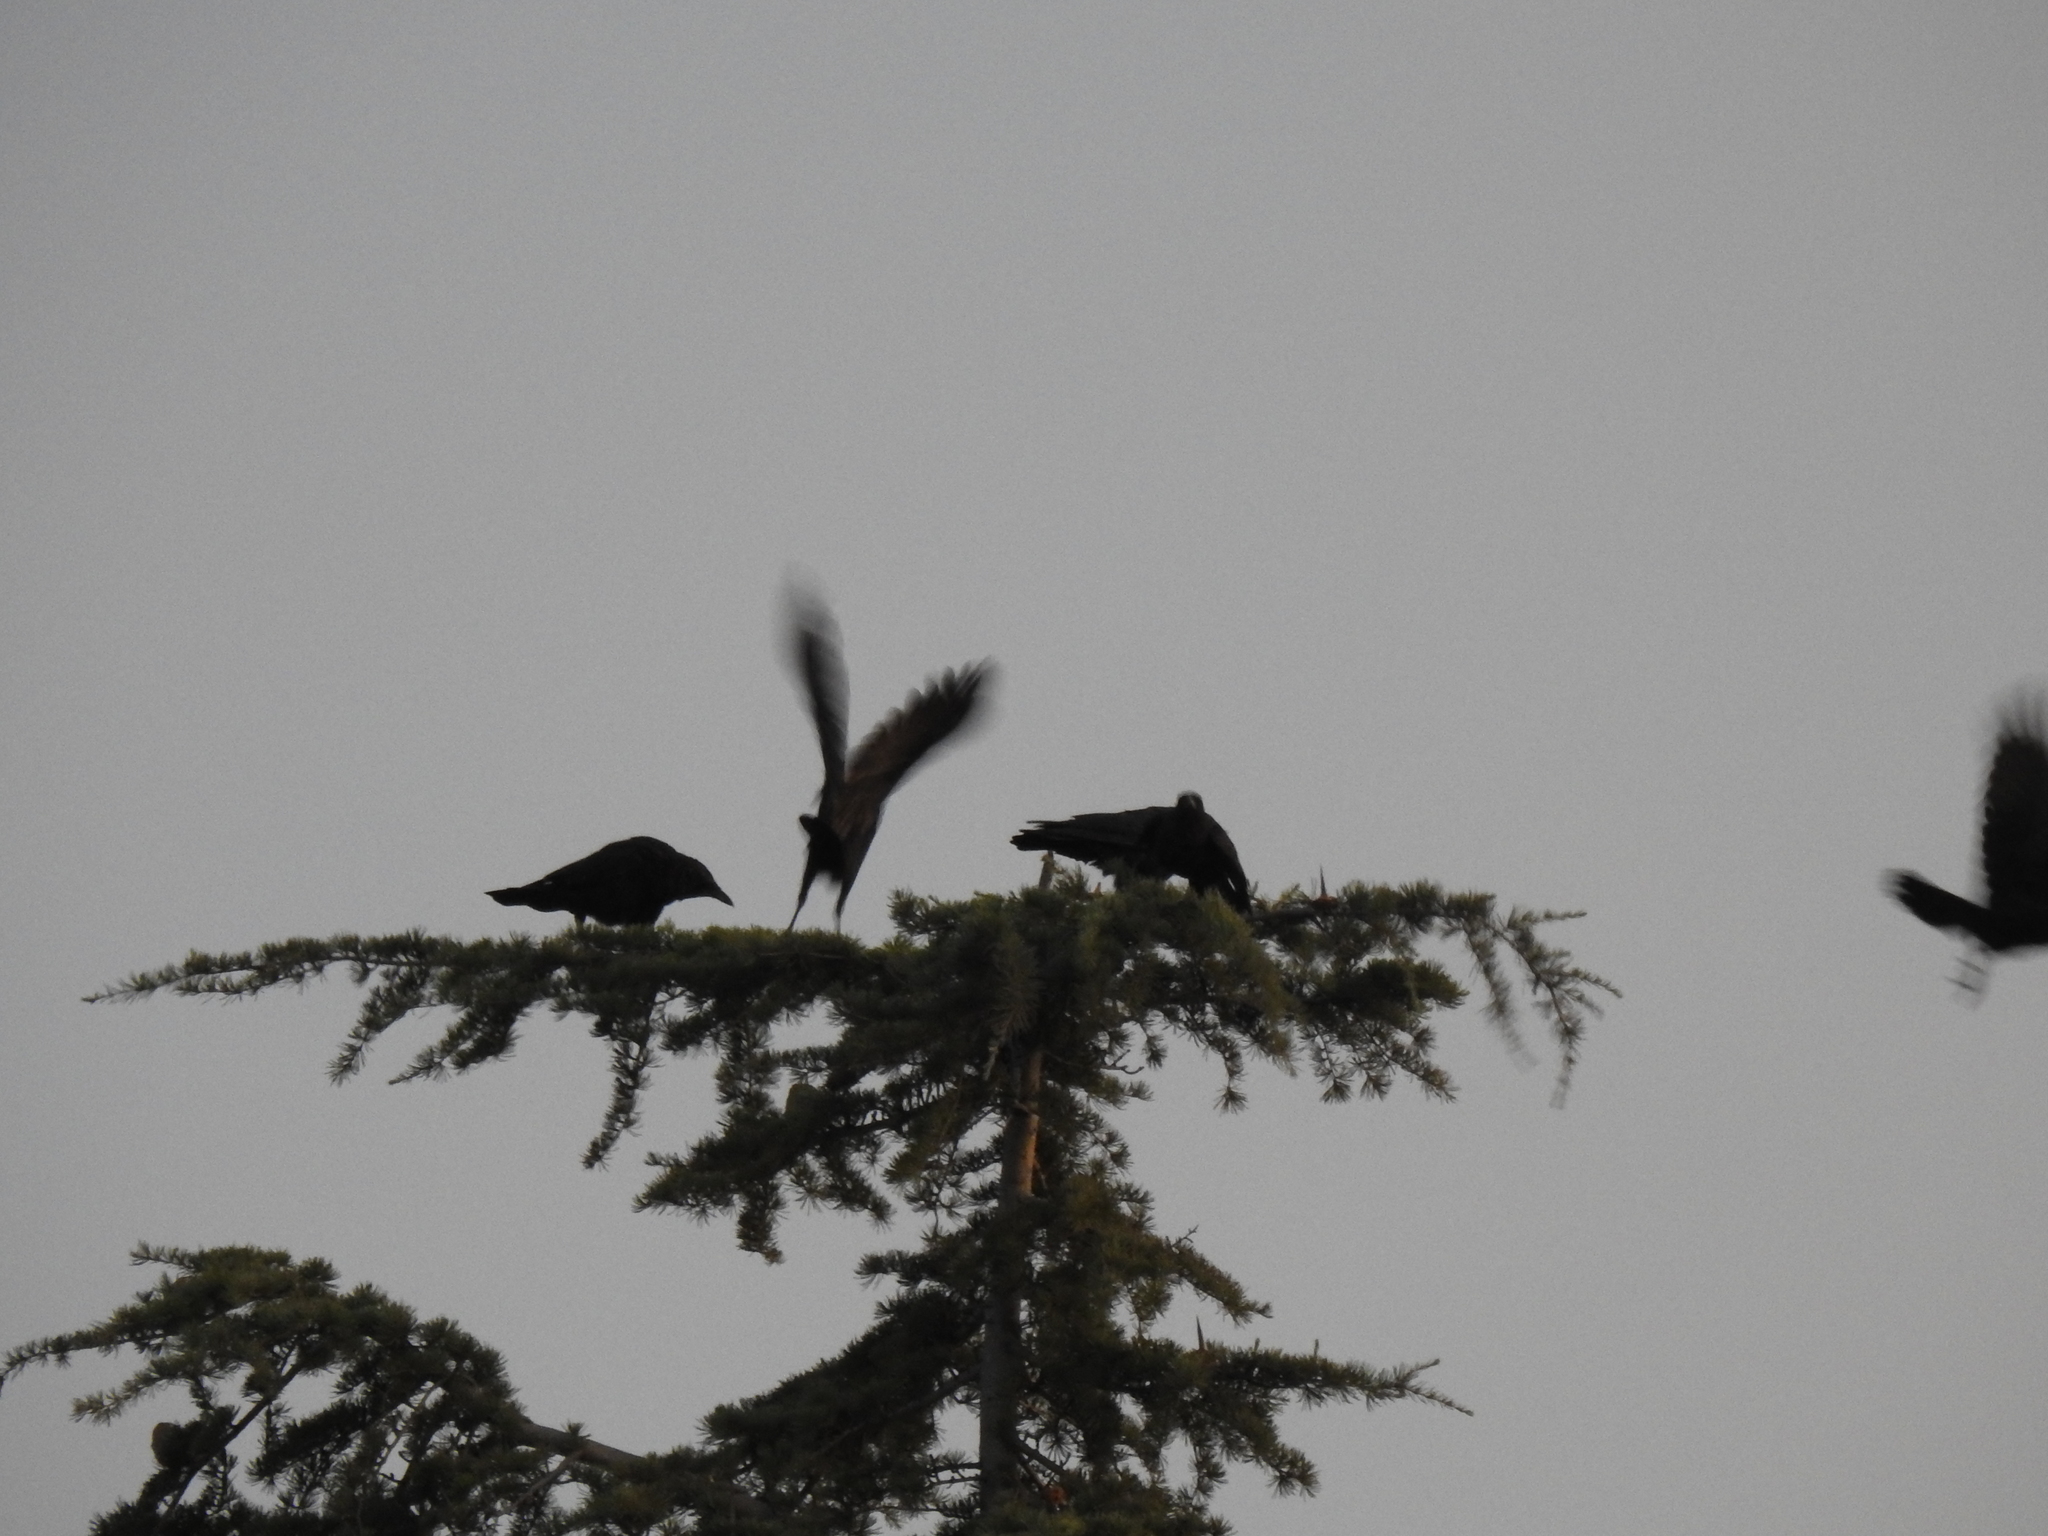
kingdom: Animalia
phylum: Chordata
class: Aves
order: Passeriformes
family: Corvidae
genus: Corvus
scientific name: Corvus brachyrhynchos
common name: American crow
